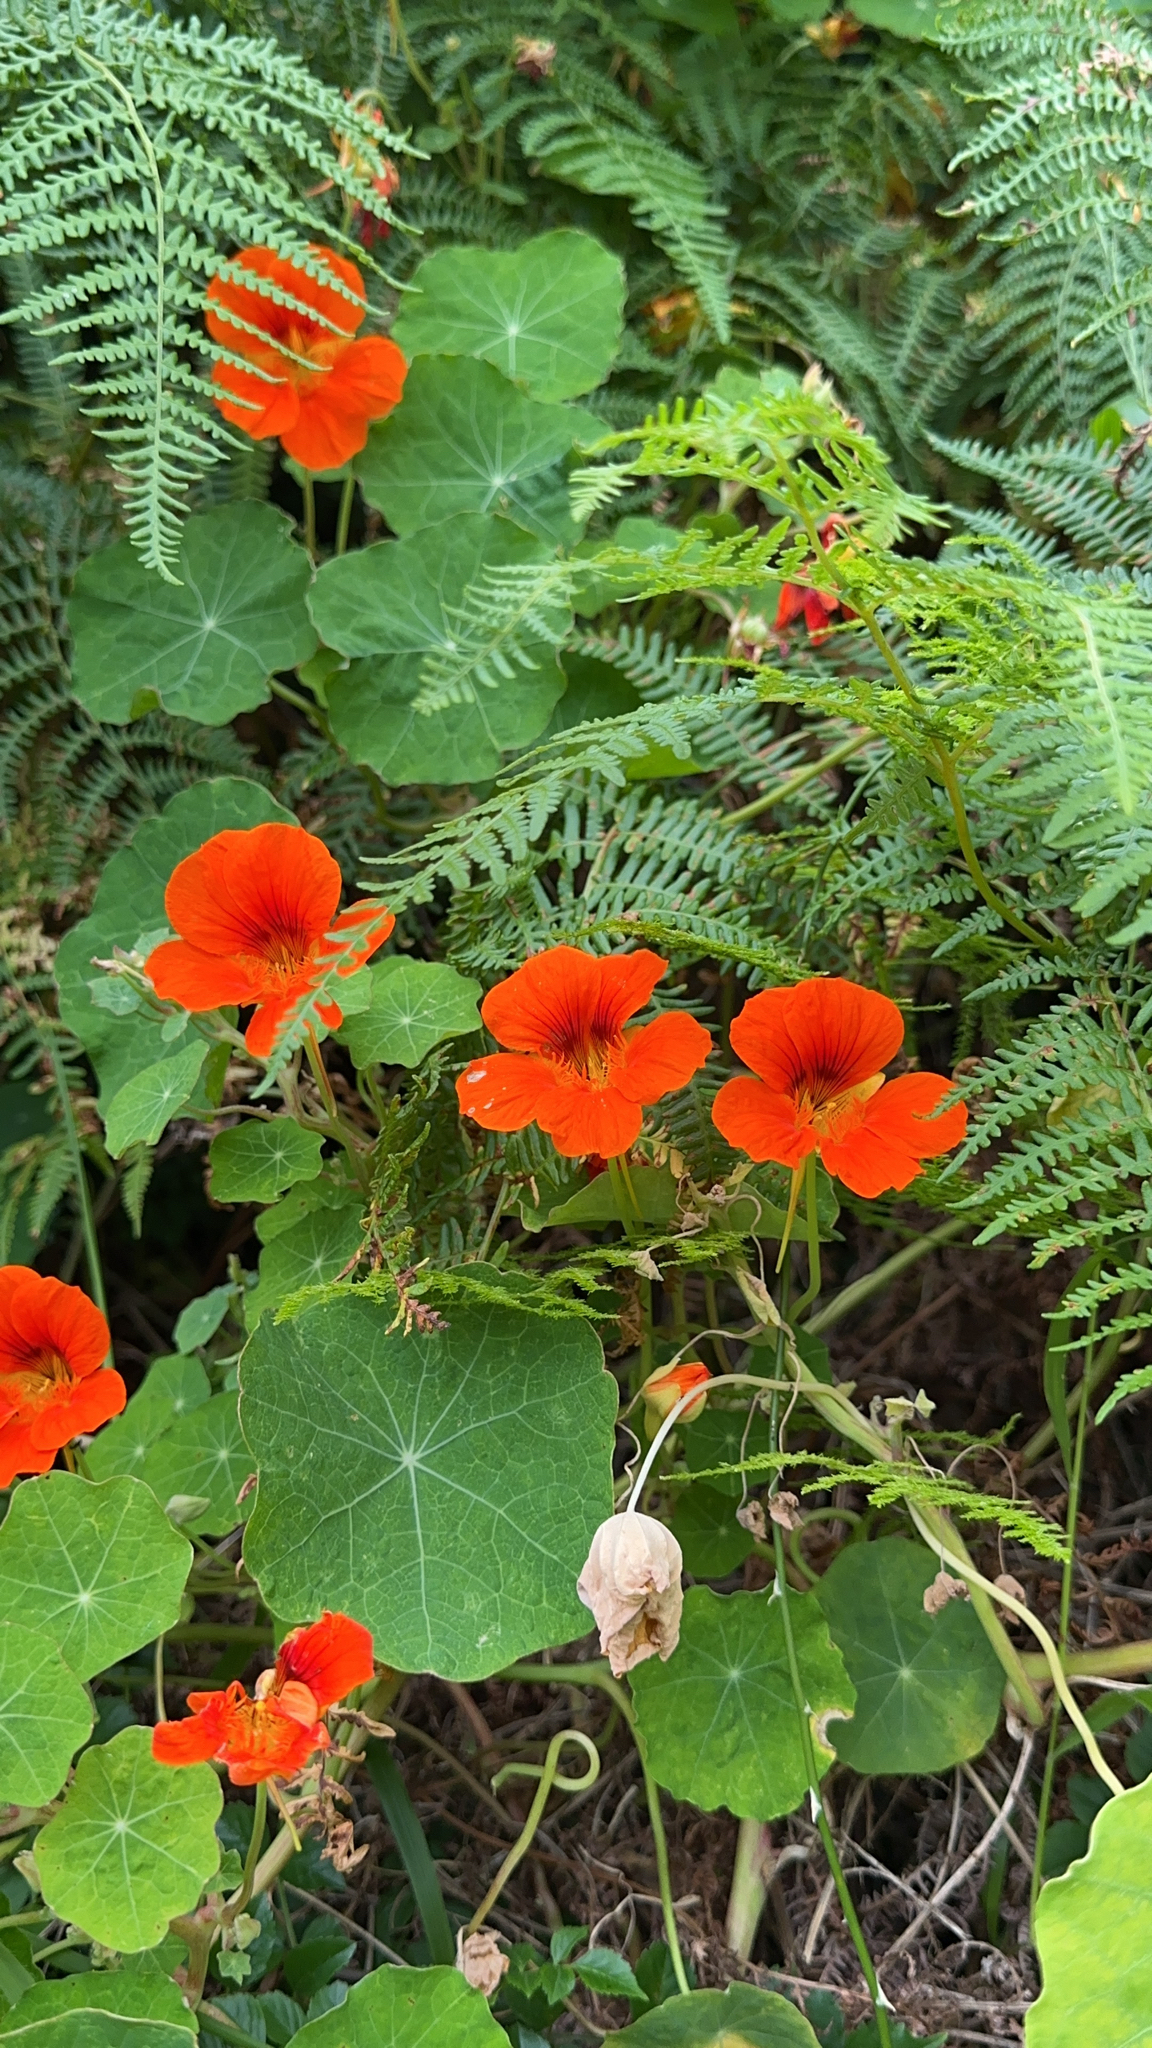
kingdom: Plantae
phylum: Tracheophyta
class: Magnoliopsida
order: Brassicales
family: Tropaeolaceae
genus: Tropaeolum
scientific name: Tropaeolum majus
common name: Nasturtium
